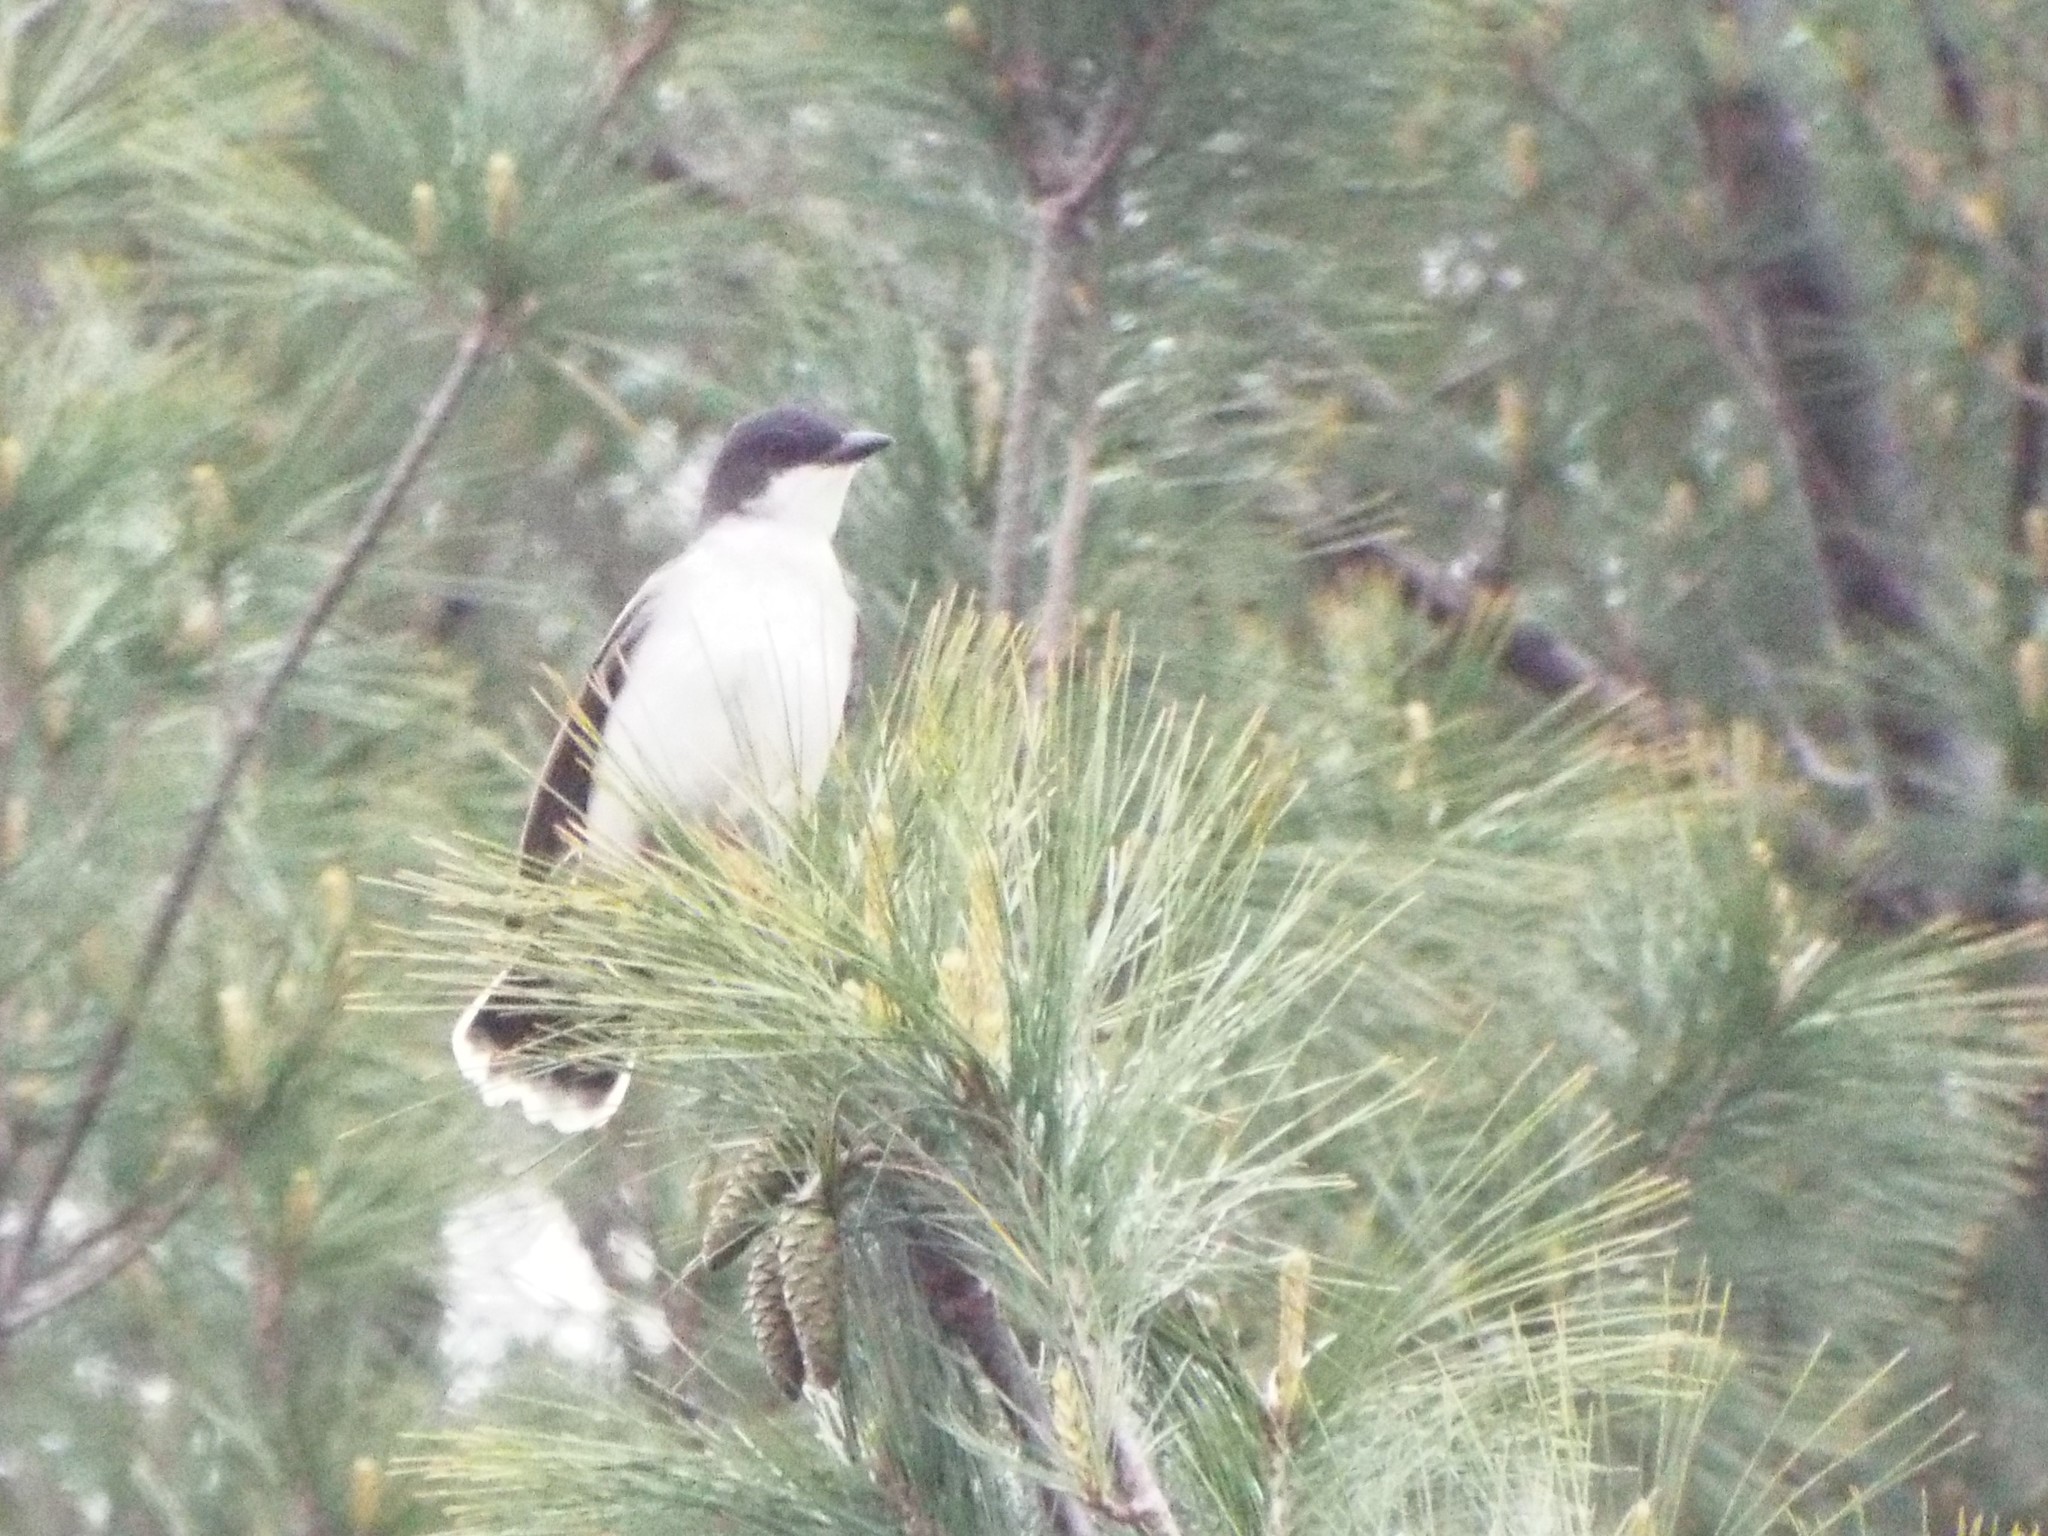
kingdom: Animalia
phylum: Chordata
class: Aves
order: Passeriformes
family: Tyrannidae
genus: Tyrannus
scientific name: Tyrannus tyrannus
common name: Eastern kingbird
